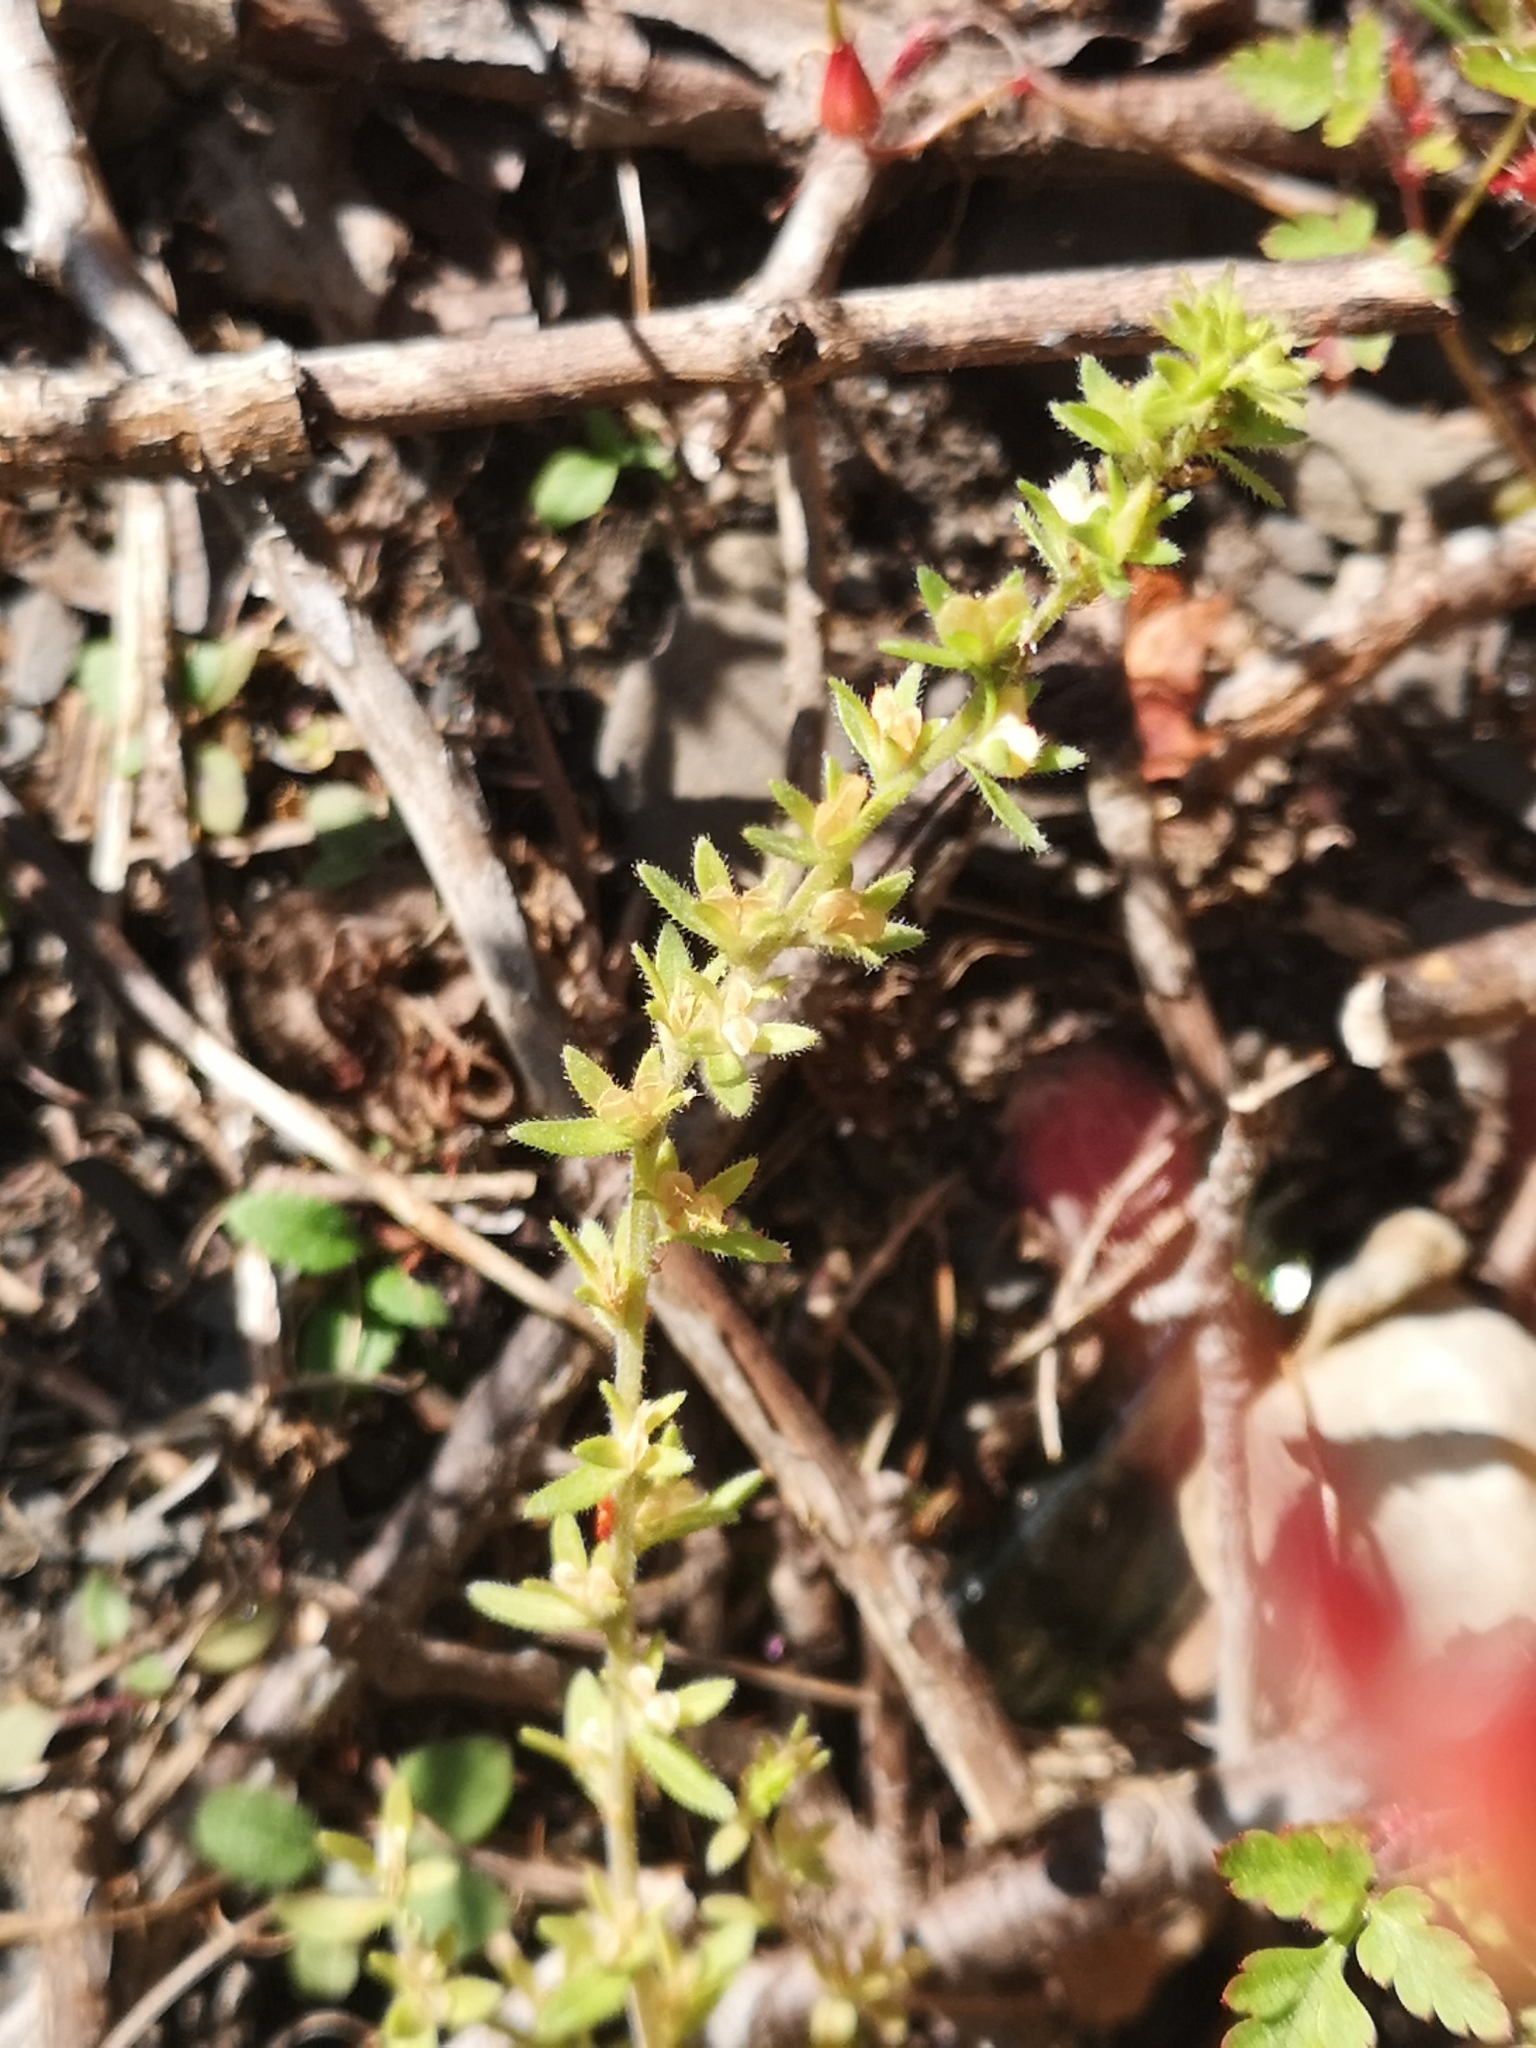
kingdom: Plantae
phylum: Tracheophyta
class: Magnoliopsida
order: Lamiales
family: Plantaginaceae
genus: Veronica
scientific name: Veronica arvensis
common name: Corn speedwell
